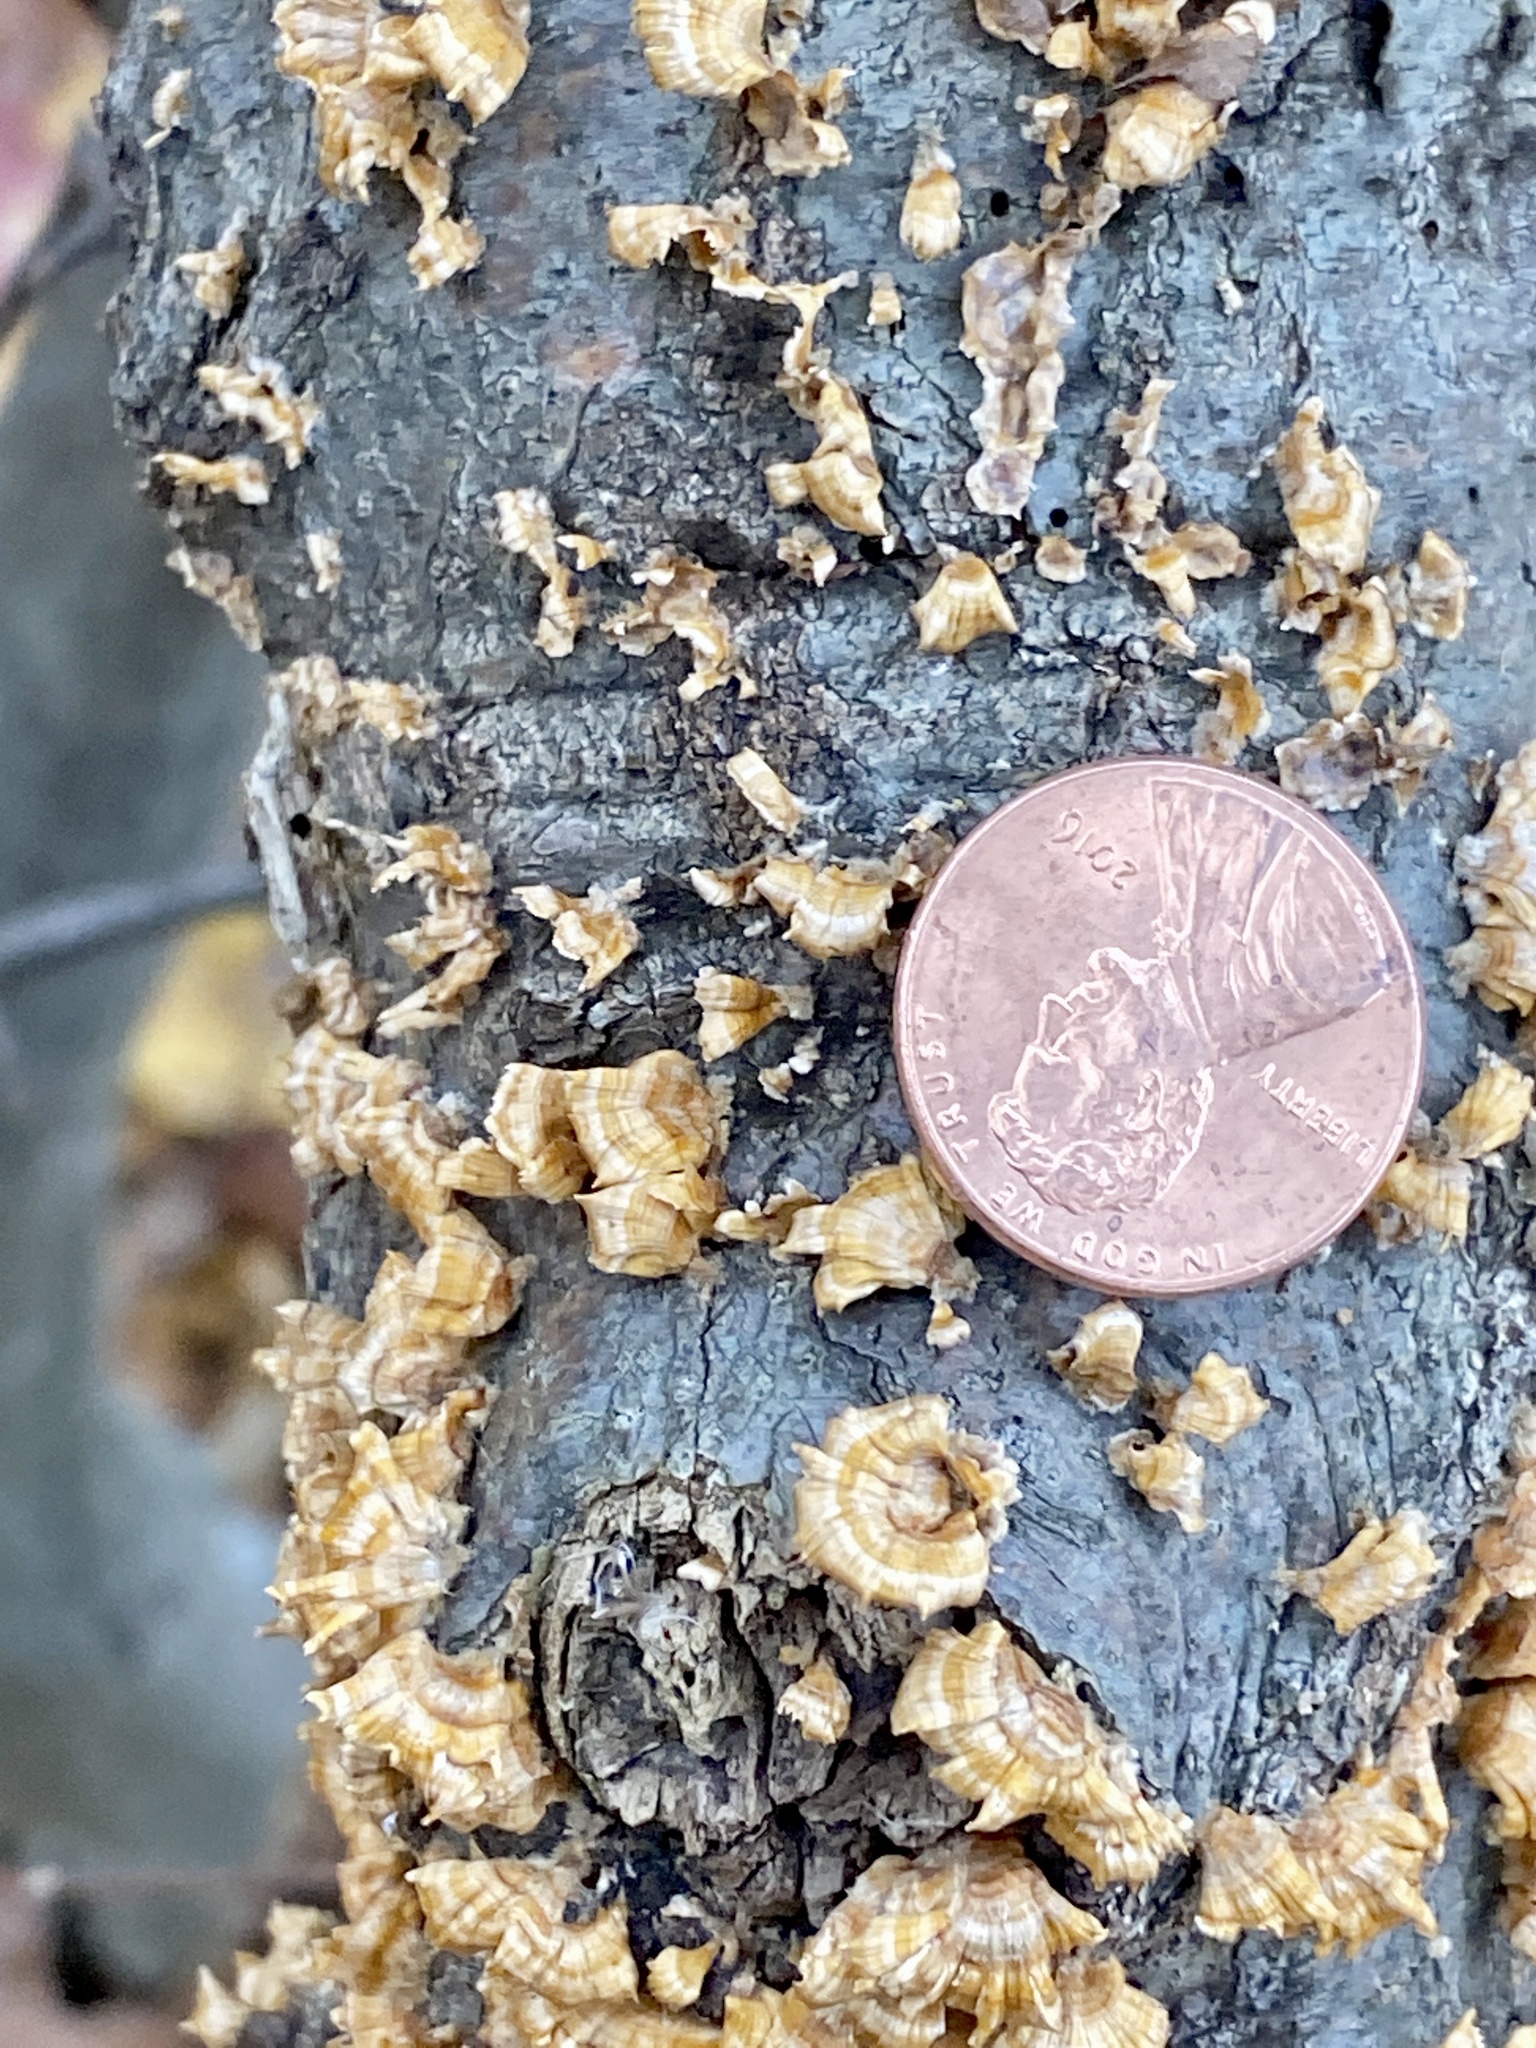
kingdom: Fungi
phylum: Basidiomycota
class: Agaricomycetes
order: Russulales
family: Stereaceae
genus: Stereum
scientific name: Stereum complicatum
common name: Crowded parchment
